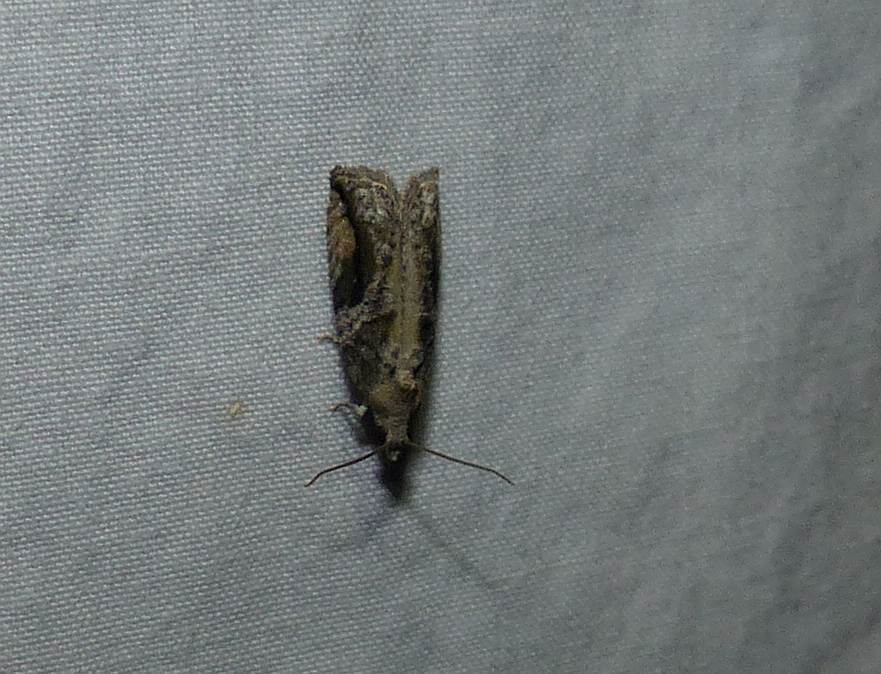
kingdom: Animalia
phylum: Arthropoda
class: Insecta
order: Lepidoptera
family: Tortricidae
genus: Proteoteras
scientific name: Proteoteras crescentana
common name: Black-crescent proteoteras moth
